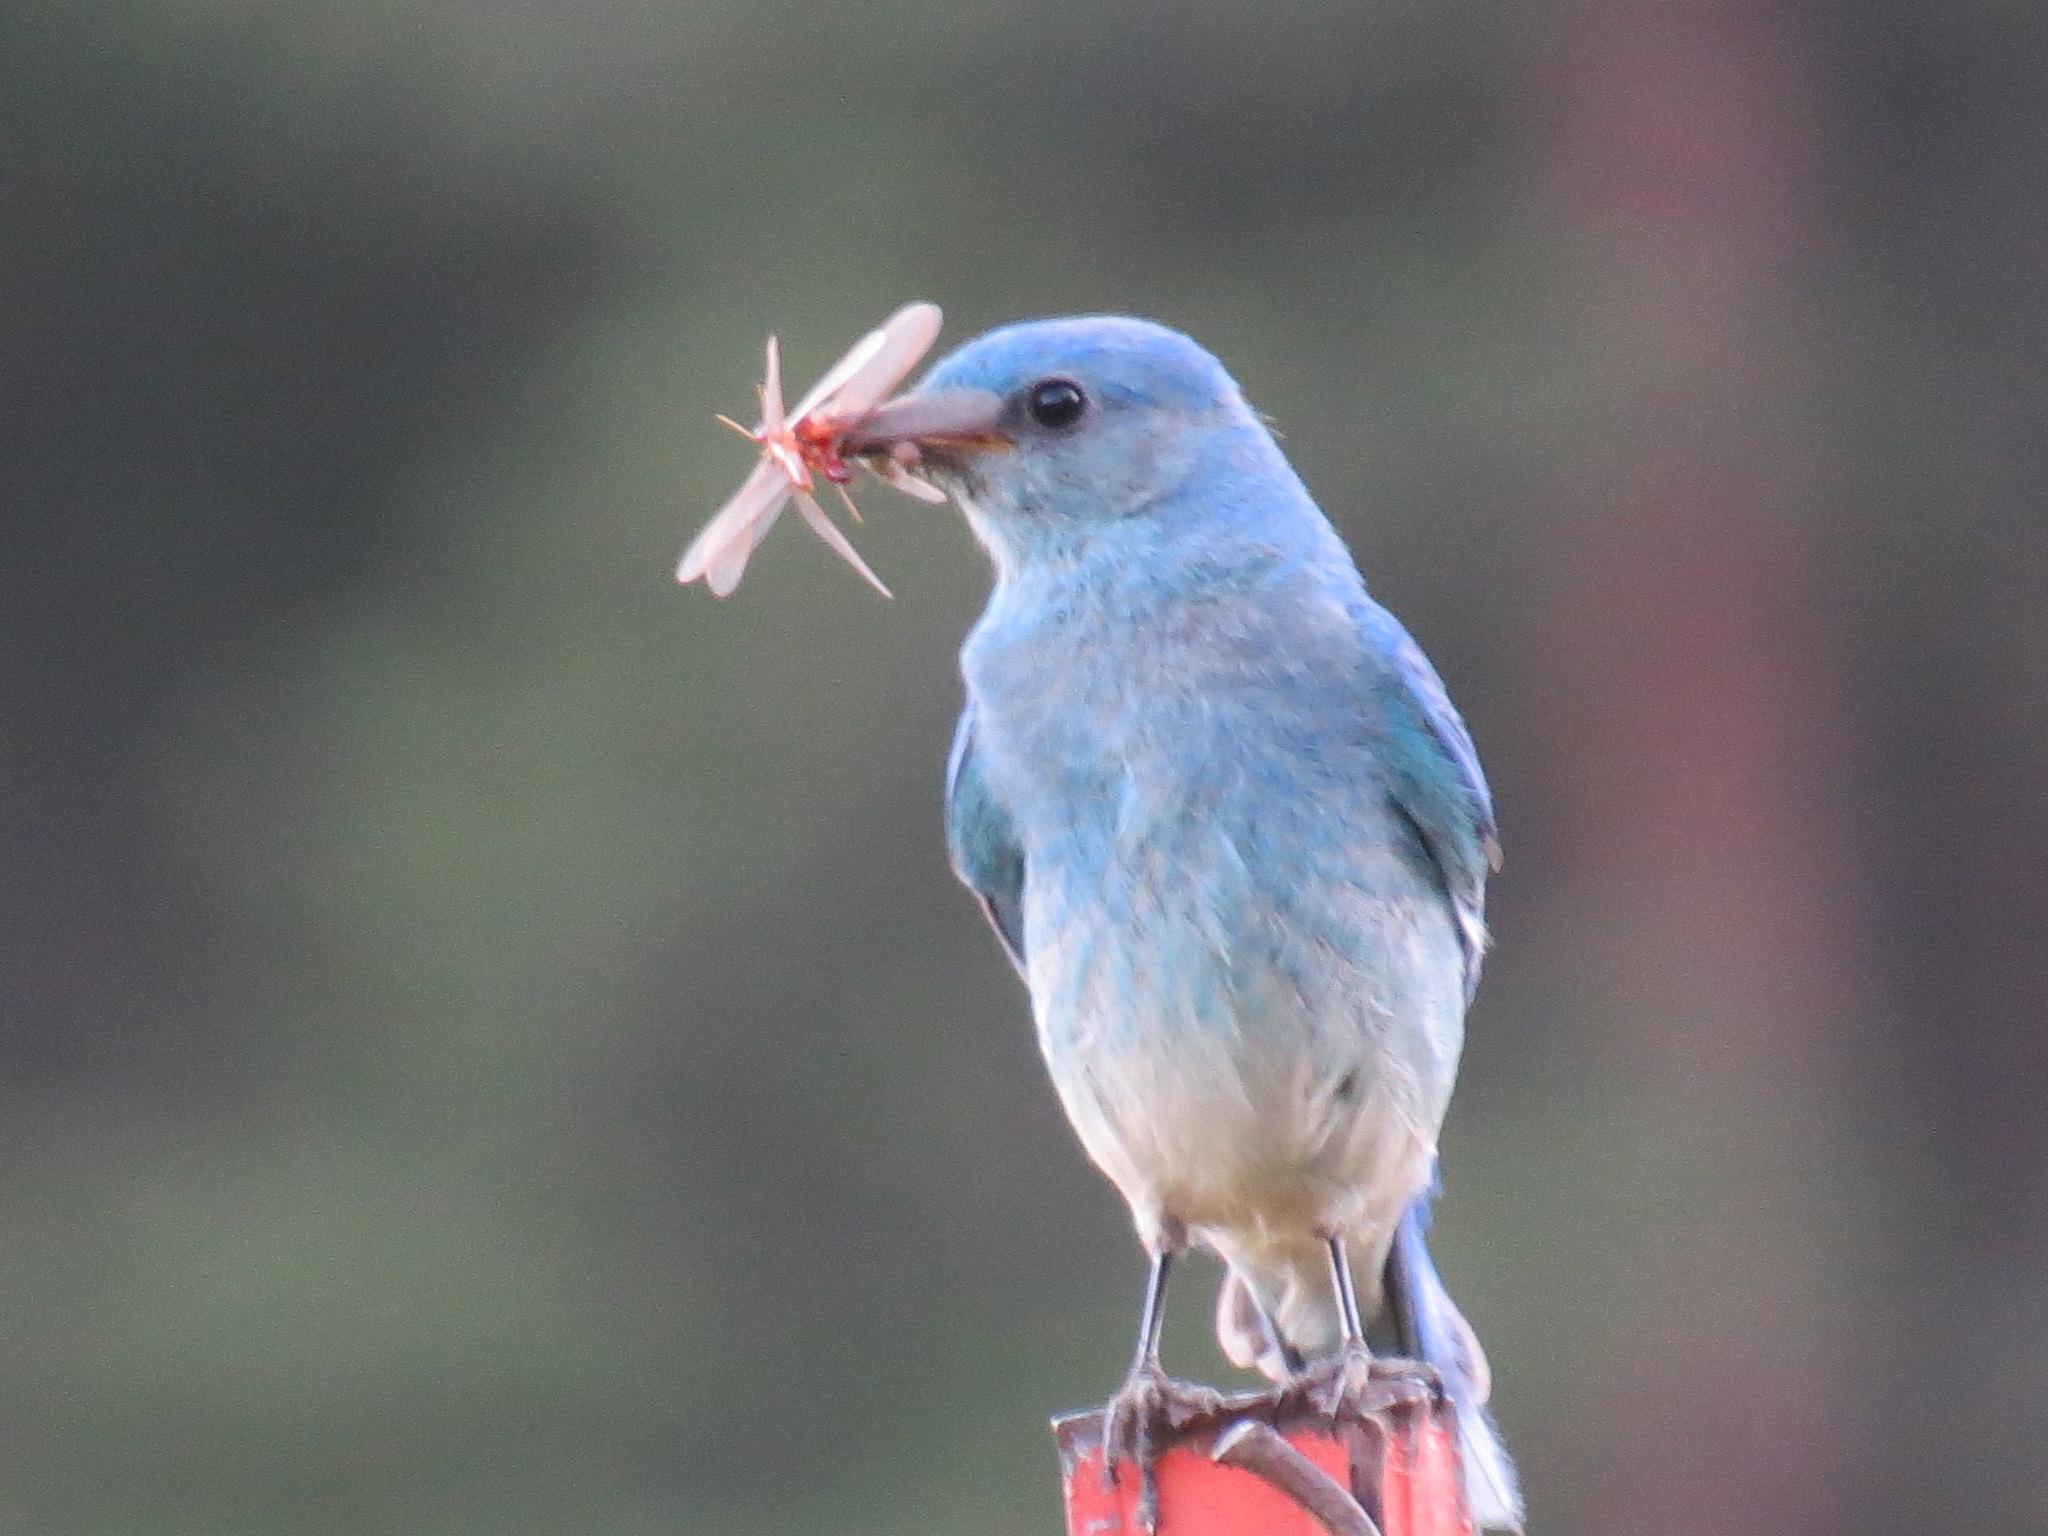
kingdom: Animalia
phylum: Chordata
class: Aves
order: Passeriformes
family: Turdidae
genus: Sialia
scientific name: Sialia currucoides
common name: Mountain bluebird
